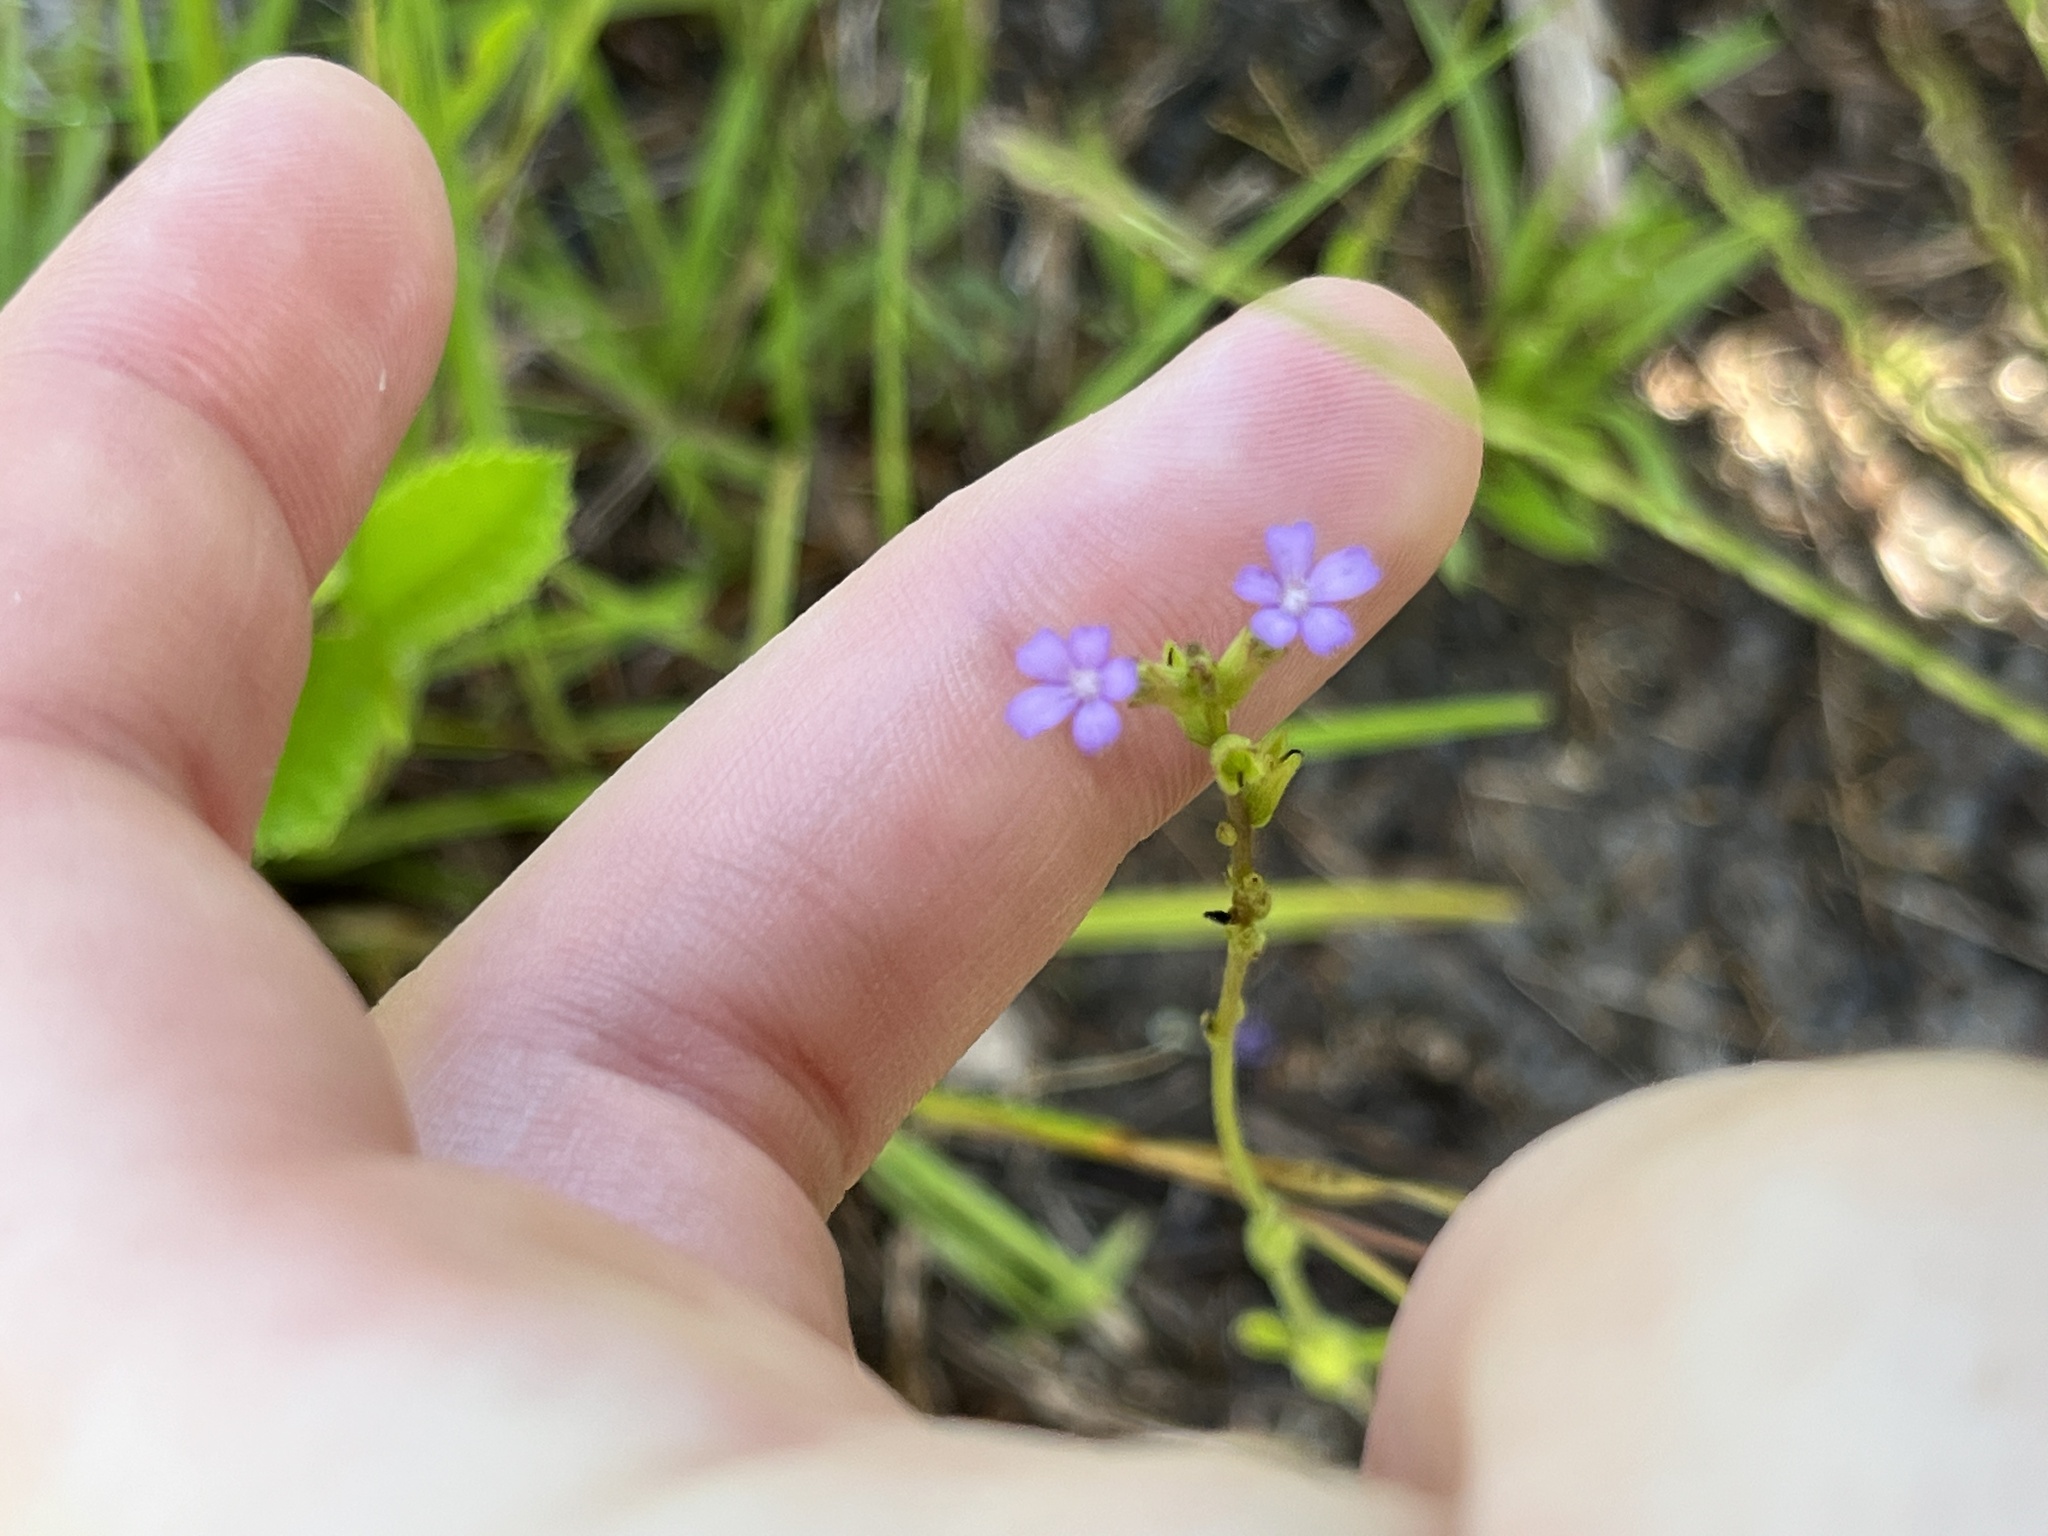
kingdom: Plantae
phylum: Tracheophyta
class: Magnoliopsida
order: Lamiales
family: Orobanchaceae
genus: Buchnera
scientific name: Buchnera floridana
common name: Florida bluehearts
